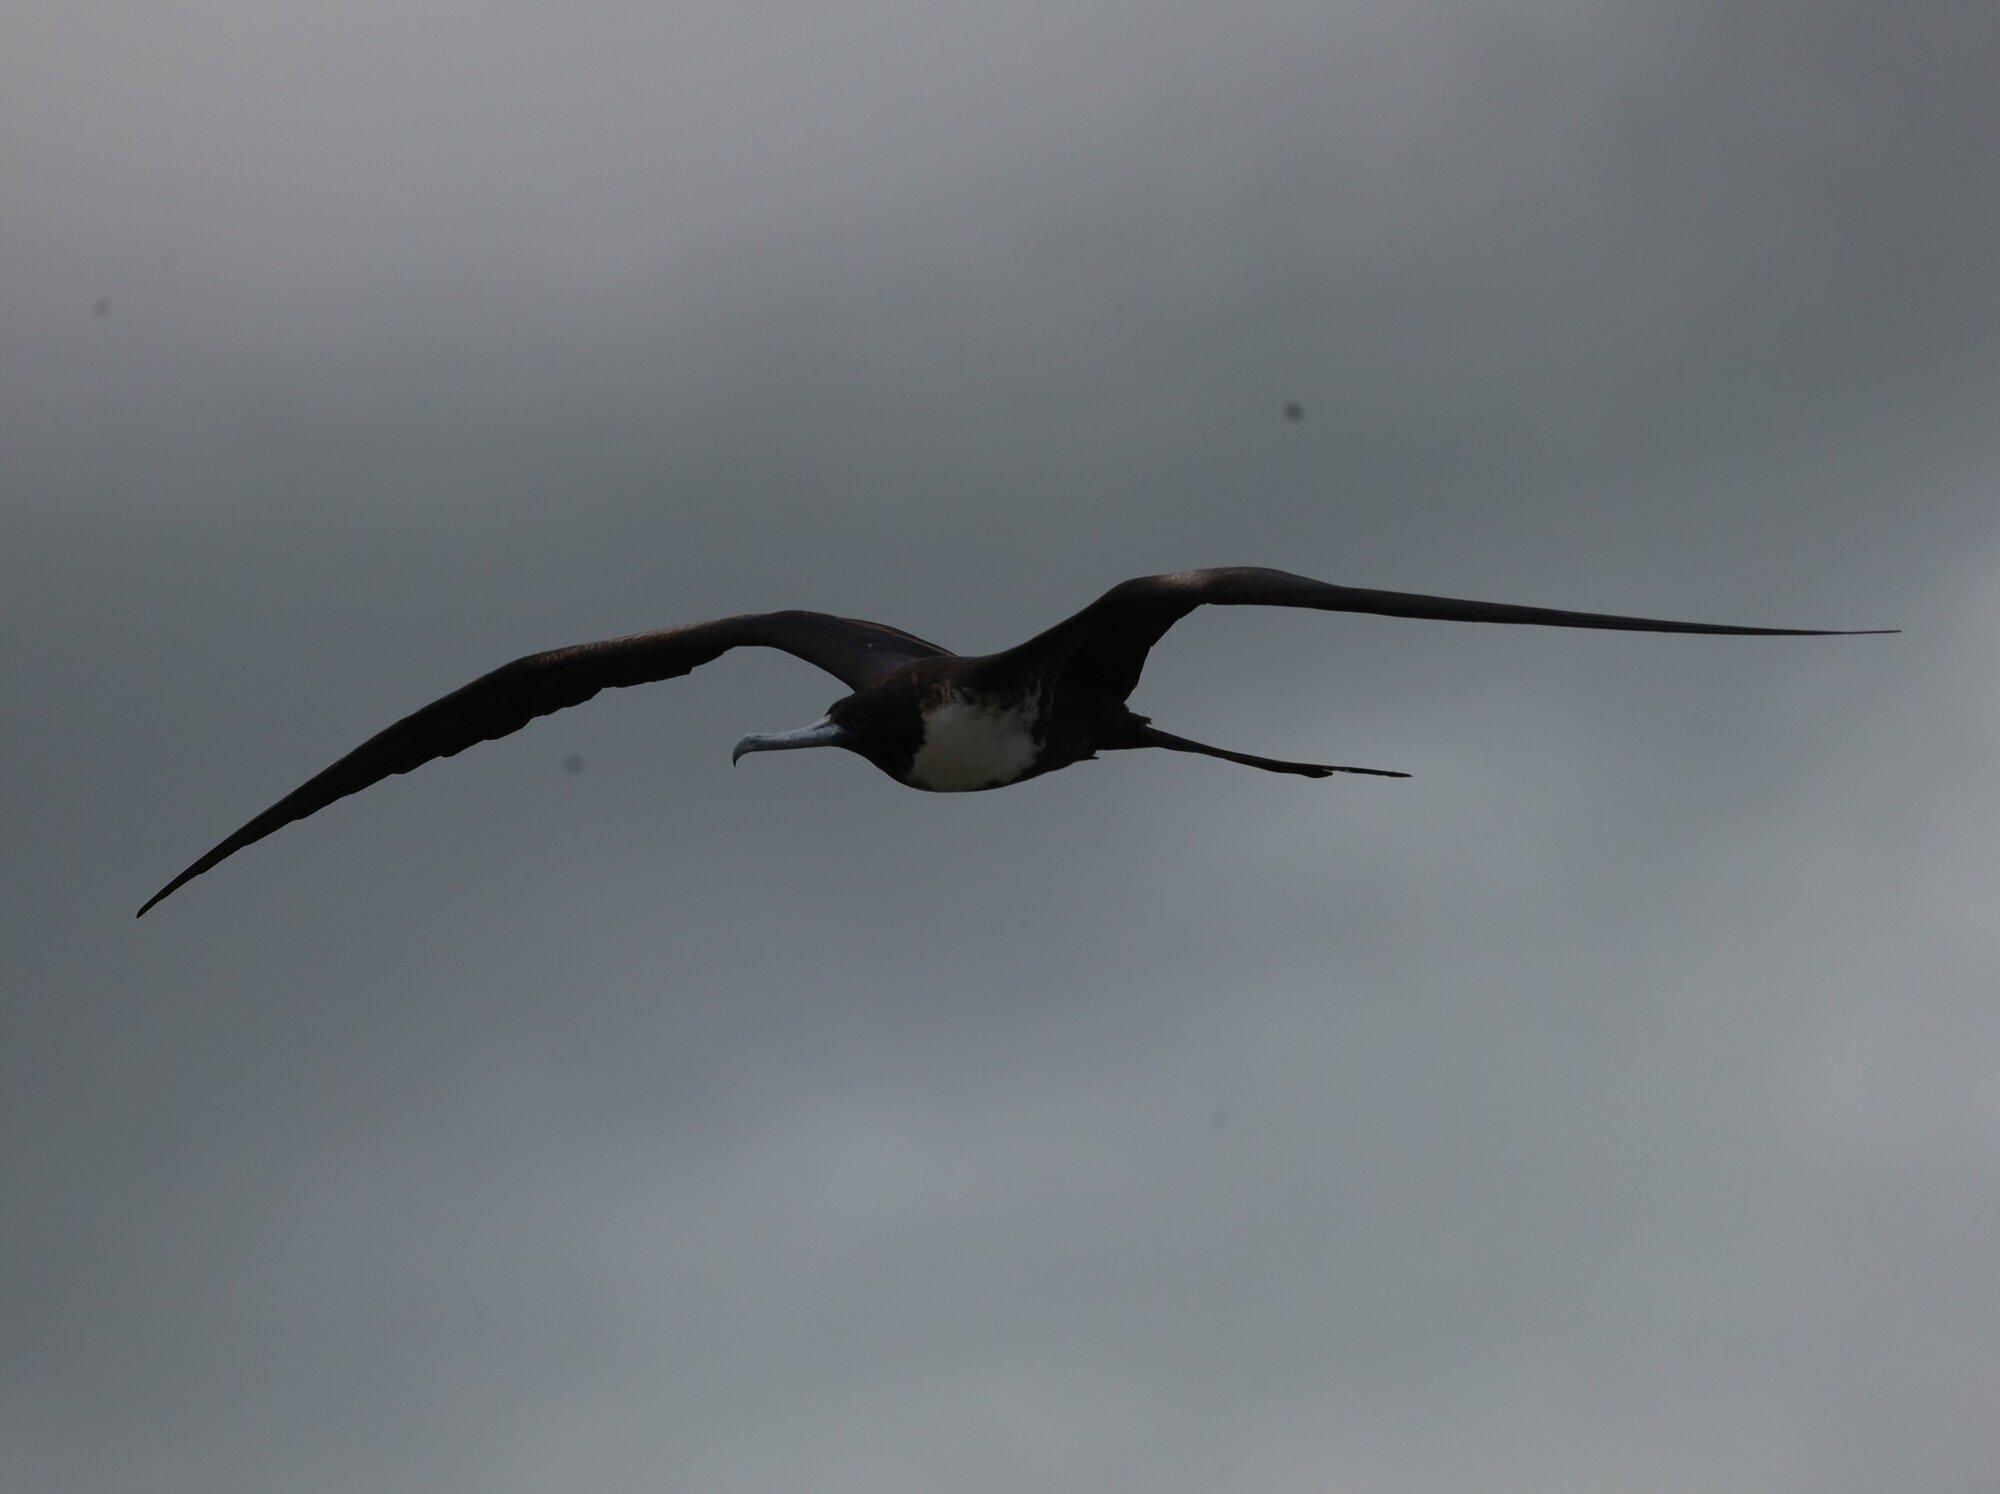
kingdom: Animalia
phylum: Chordata
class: Aves
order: Suliformes
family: Fregatidae
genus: Fregata
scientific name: Fregata magnificens
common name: Magnificent frigatebird
